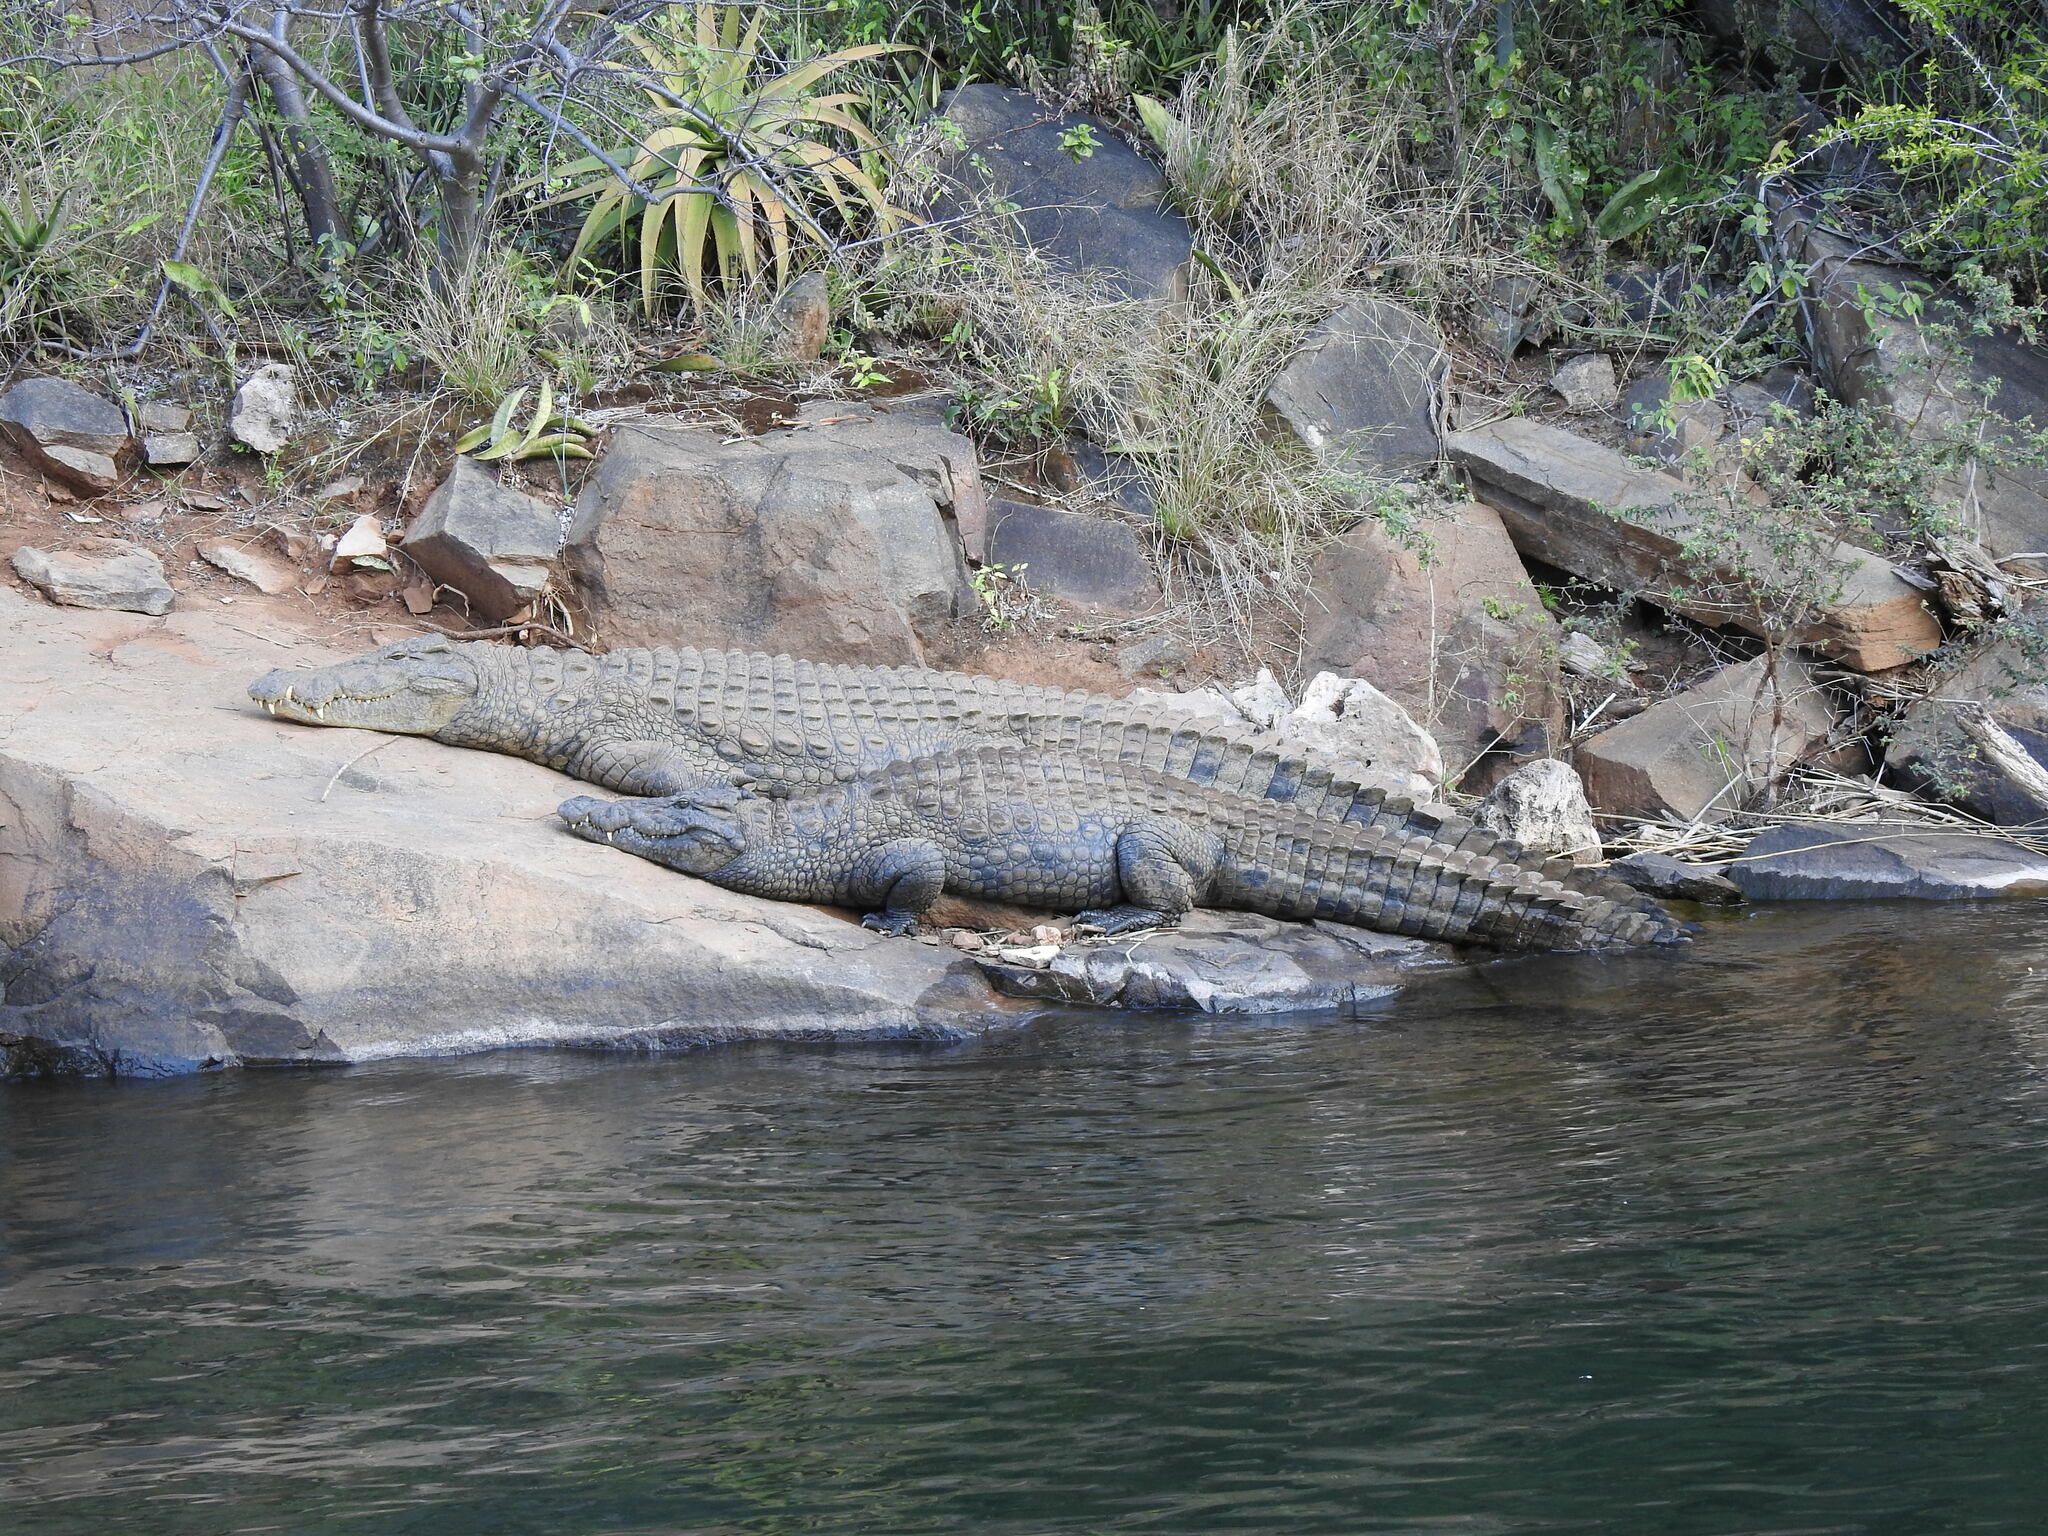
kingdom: Animalia
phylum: Chordata
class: Crocodylia
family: Crocodylidae
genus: Crocodylus
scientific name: Crocodylus niloticus
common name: Nile crocodile
